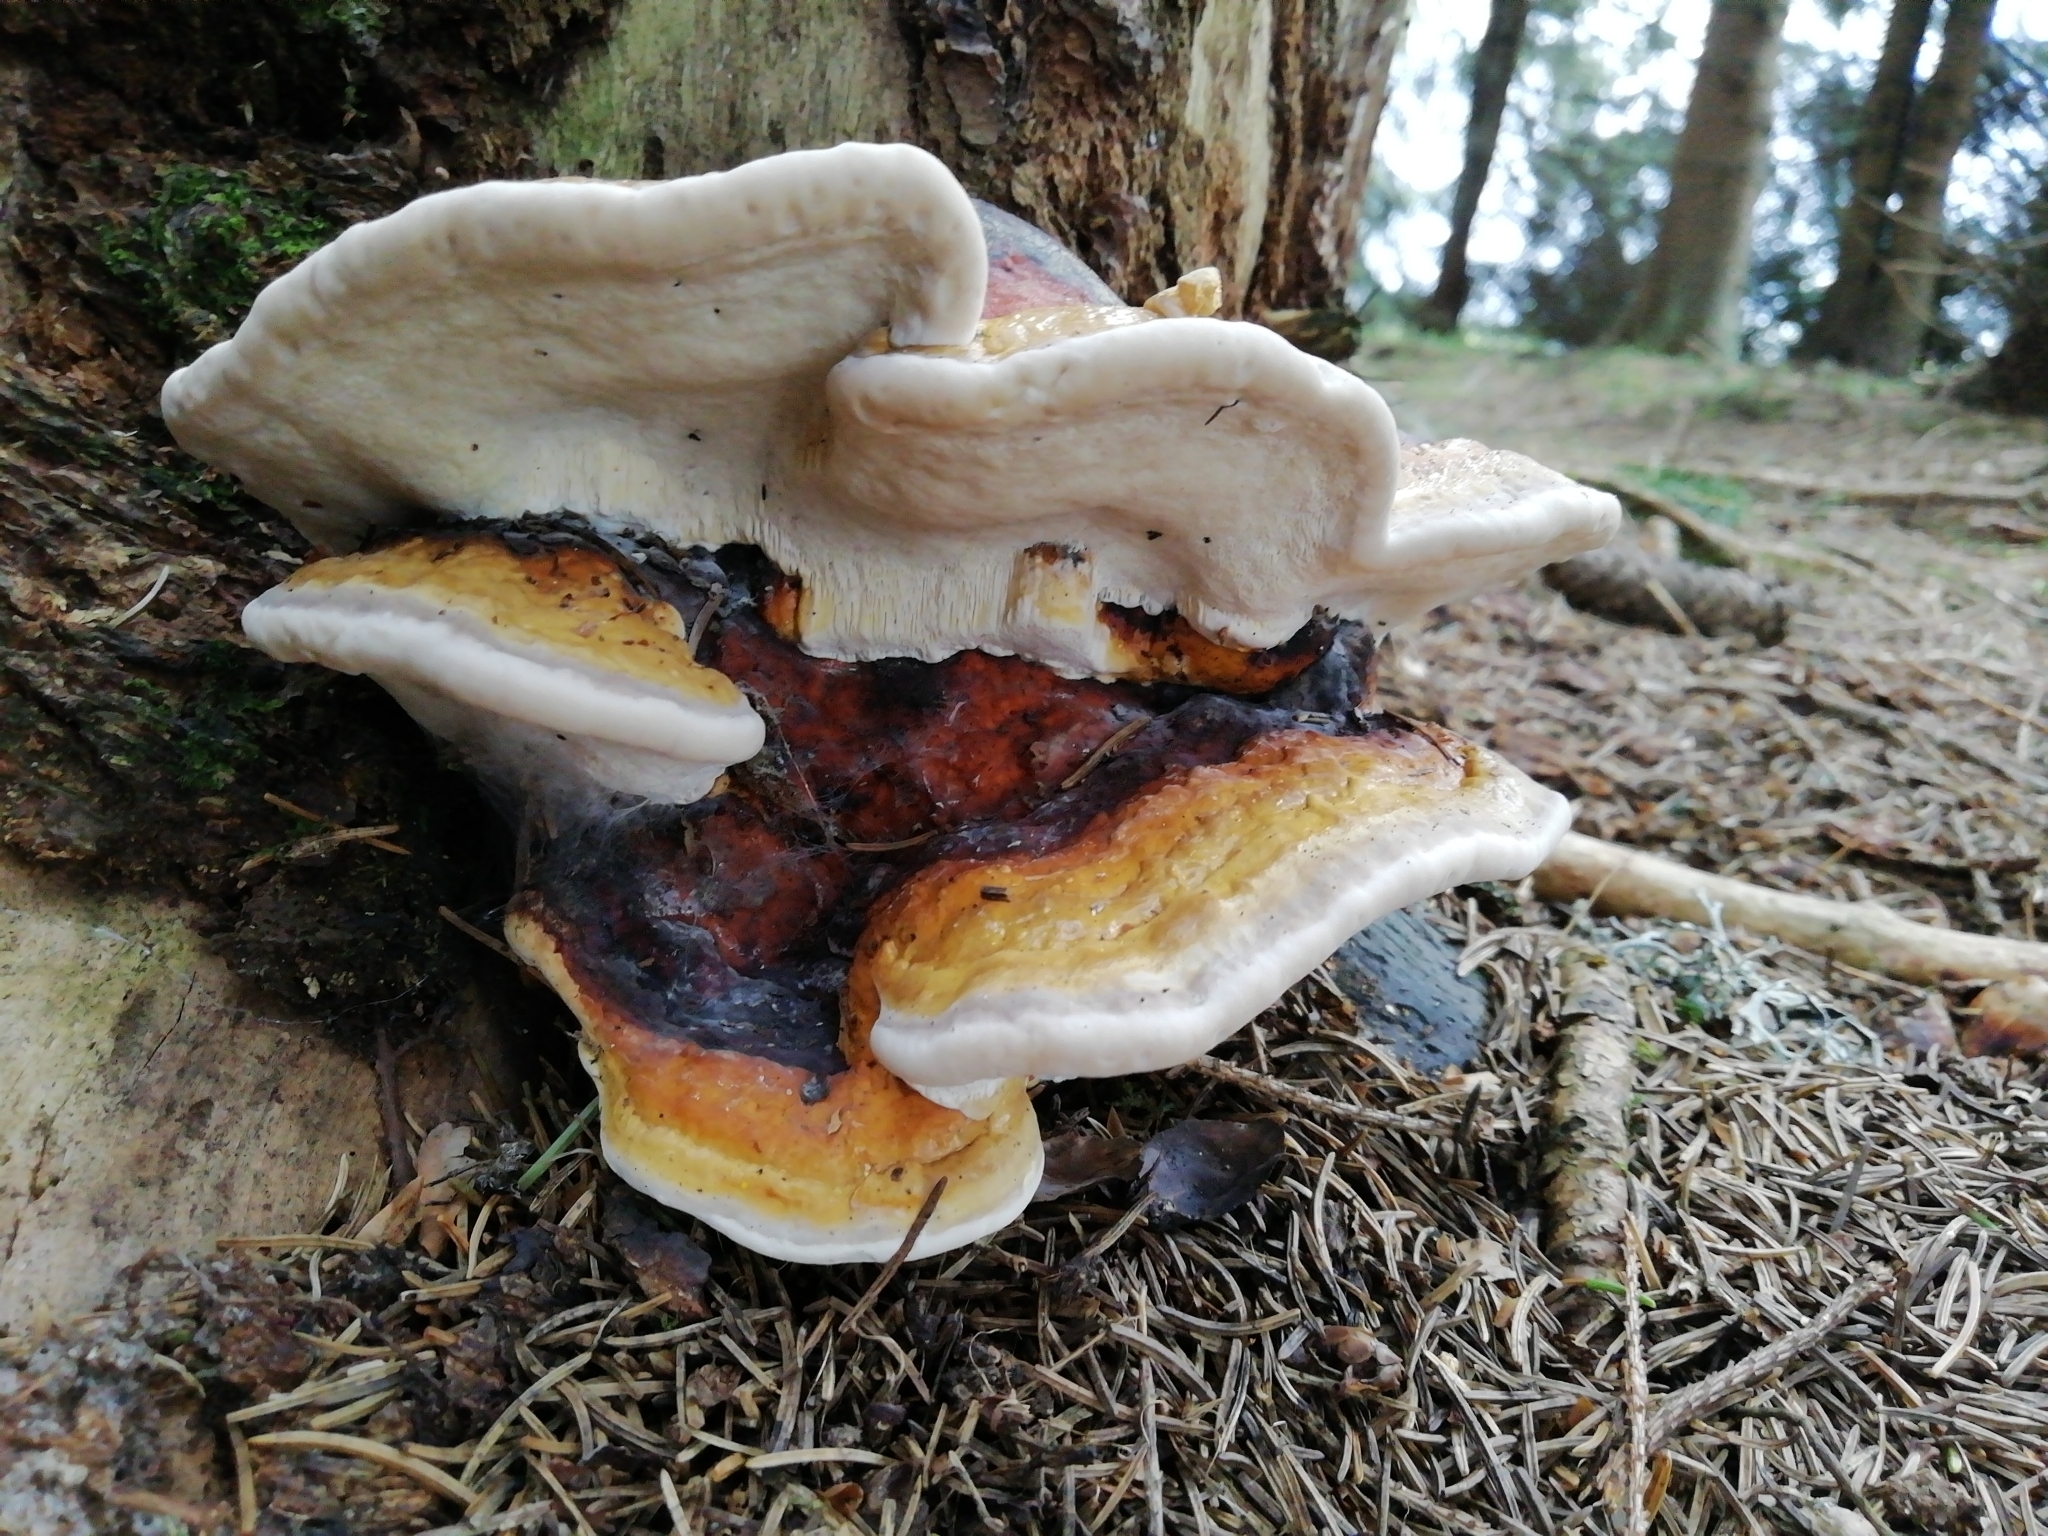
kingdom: Fungi
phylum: Basidiomycota
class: Agaricomycetes
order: Polyporales
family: Fomitopsidaceae
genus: Fomitopsis
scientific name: Fomitopsis pinicola
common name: Red-belted bracket
